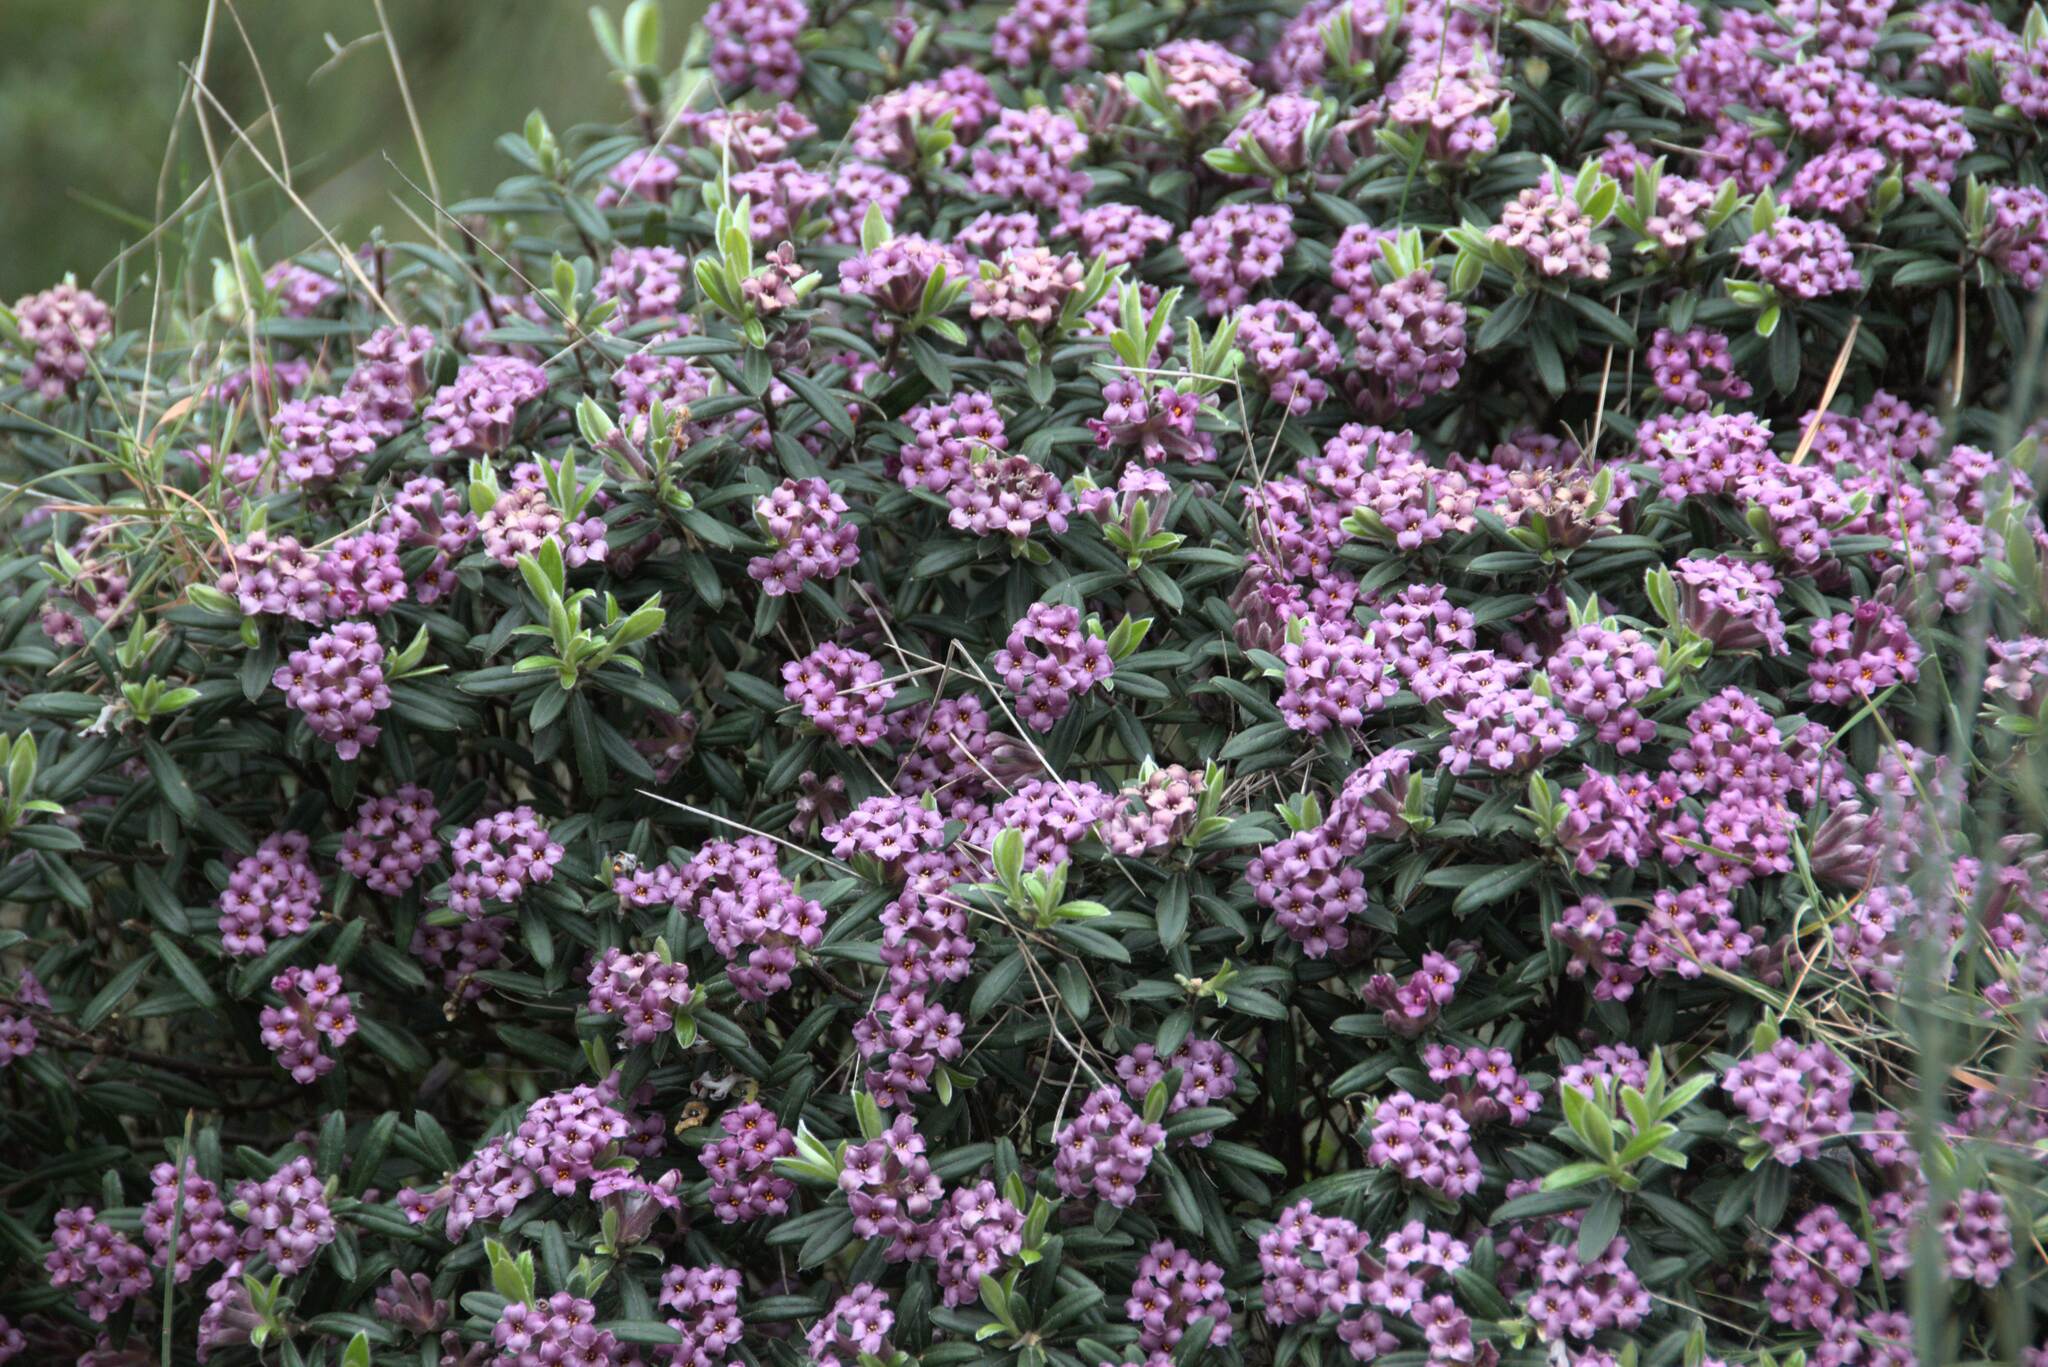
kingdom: Plantae
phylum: Tracheophyta
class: Magnoliopsida
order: Malvales
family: Thymelaeaceae
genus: Daphne
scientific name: Daphne sericea
